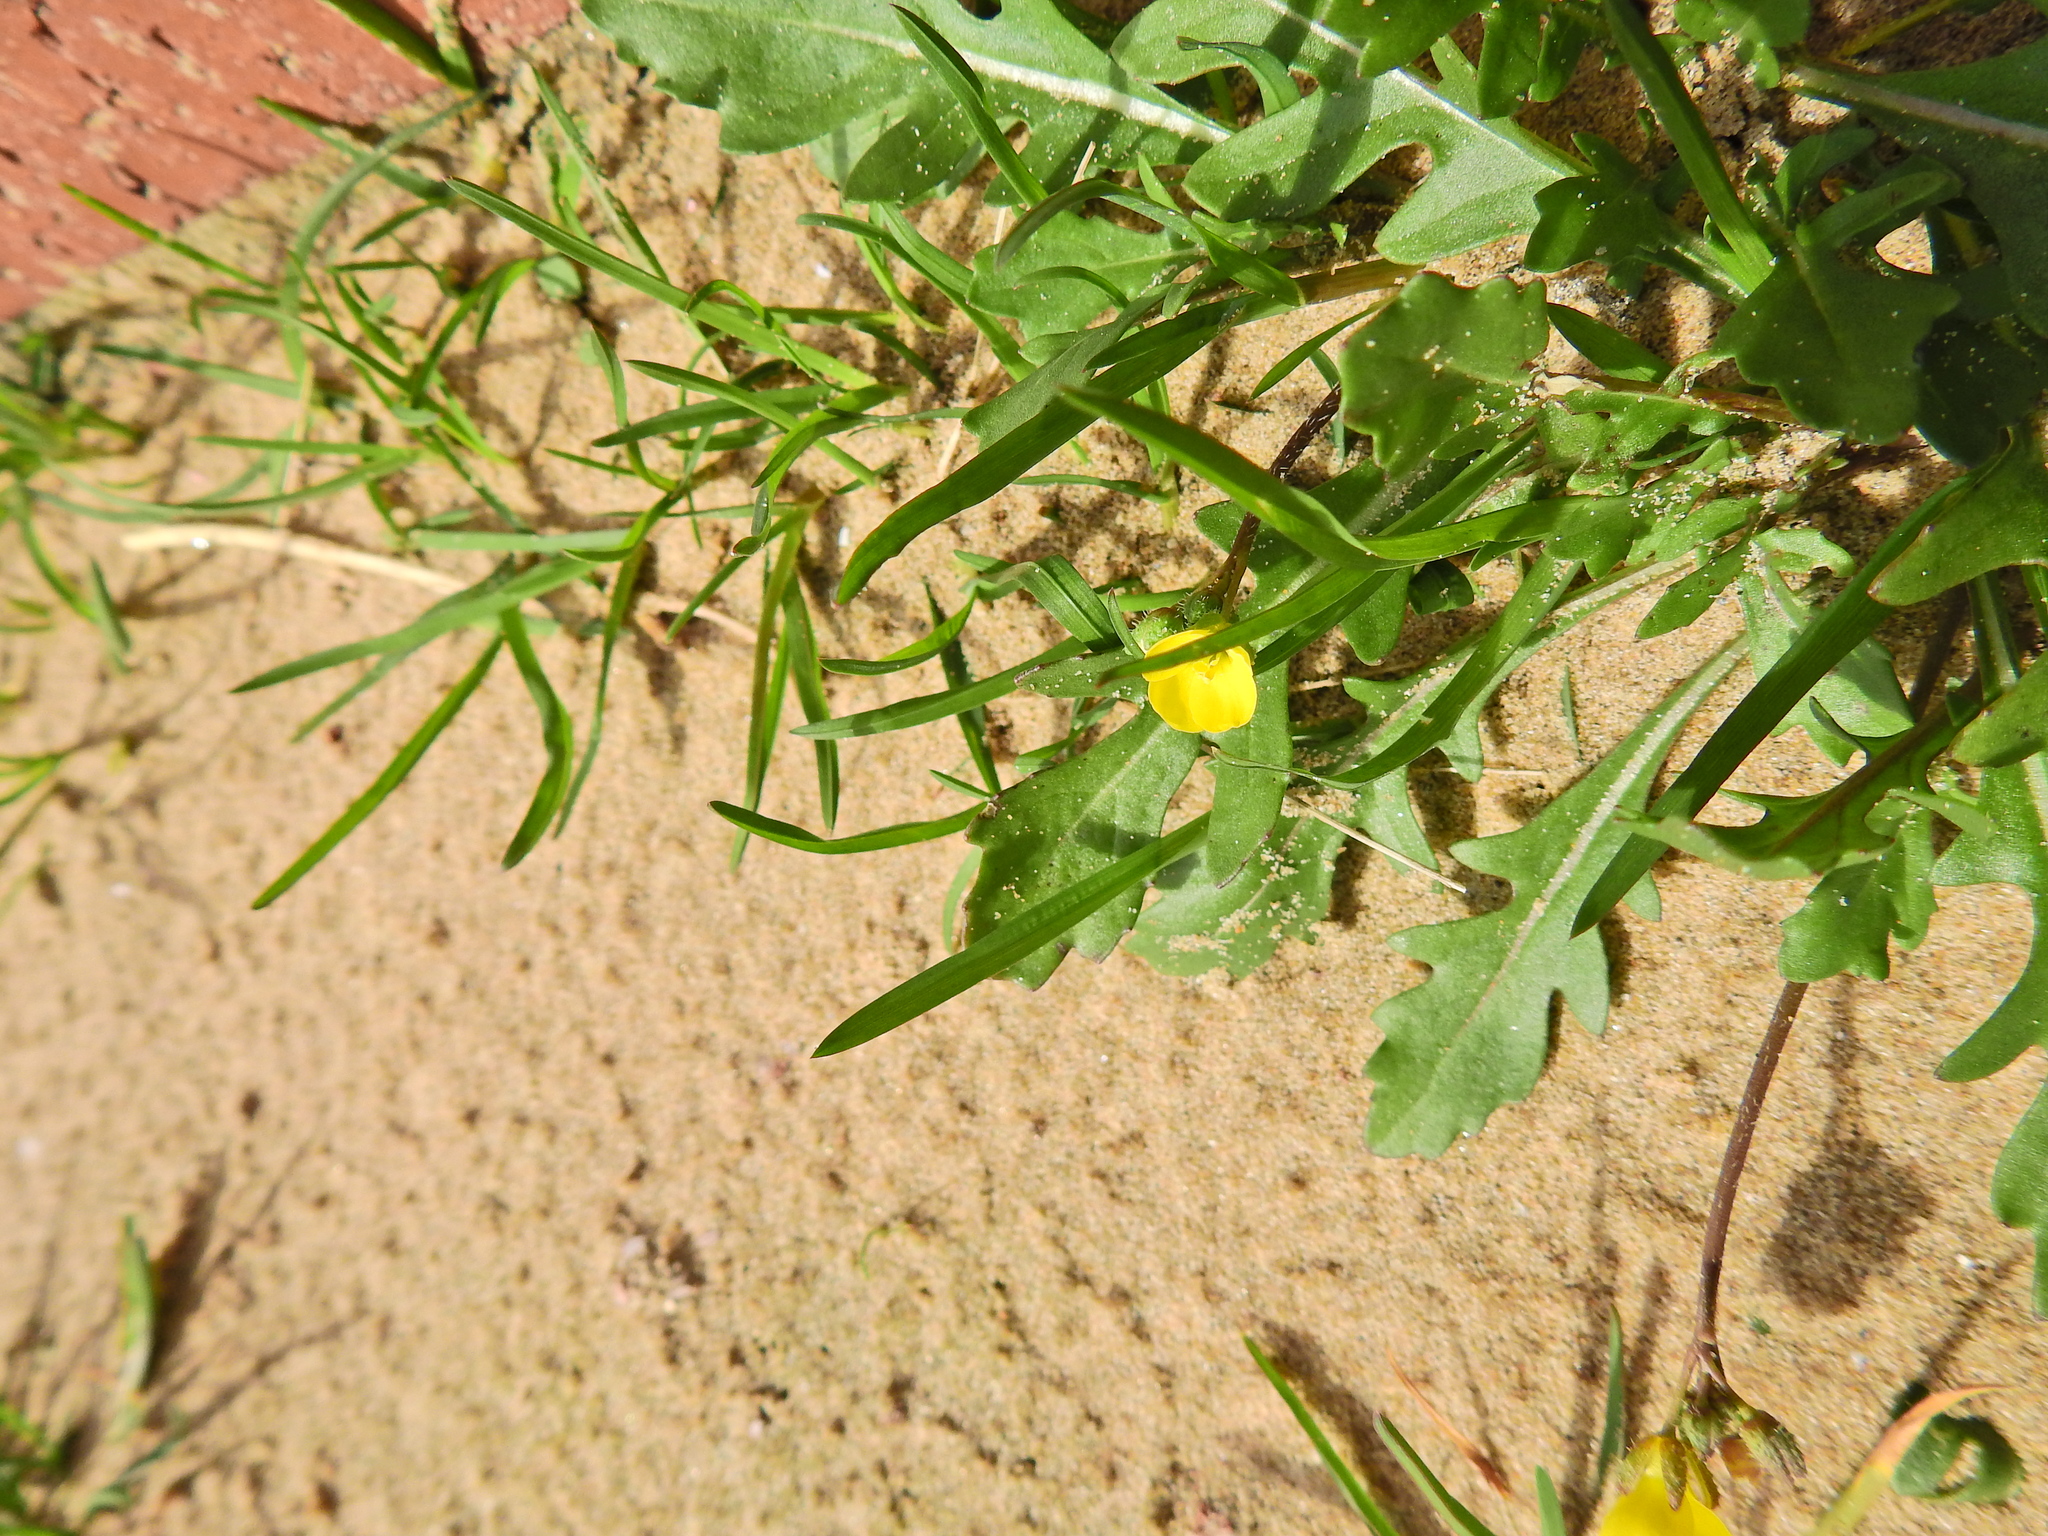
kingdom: Plantae
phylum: Tracheophyta
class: Magnoliopsida
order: Brassicales
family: Brassicaceae
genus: Diplotaxis
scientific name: Diplotaxis muralis
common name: Annual wall-rocket
